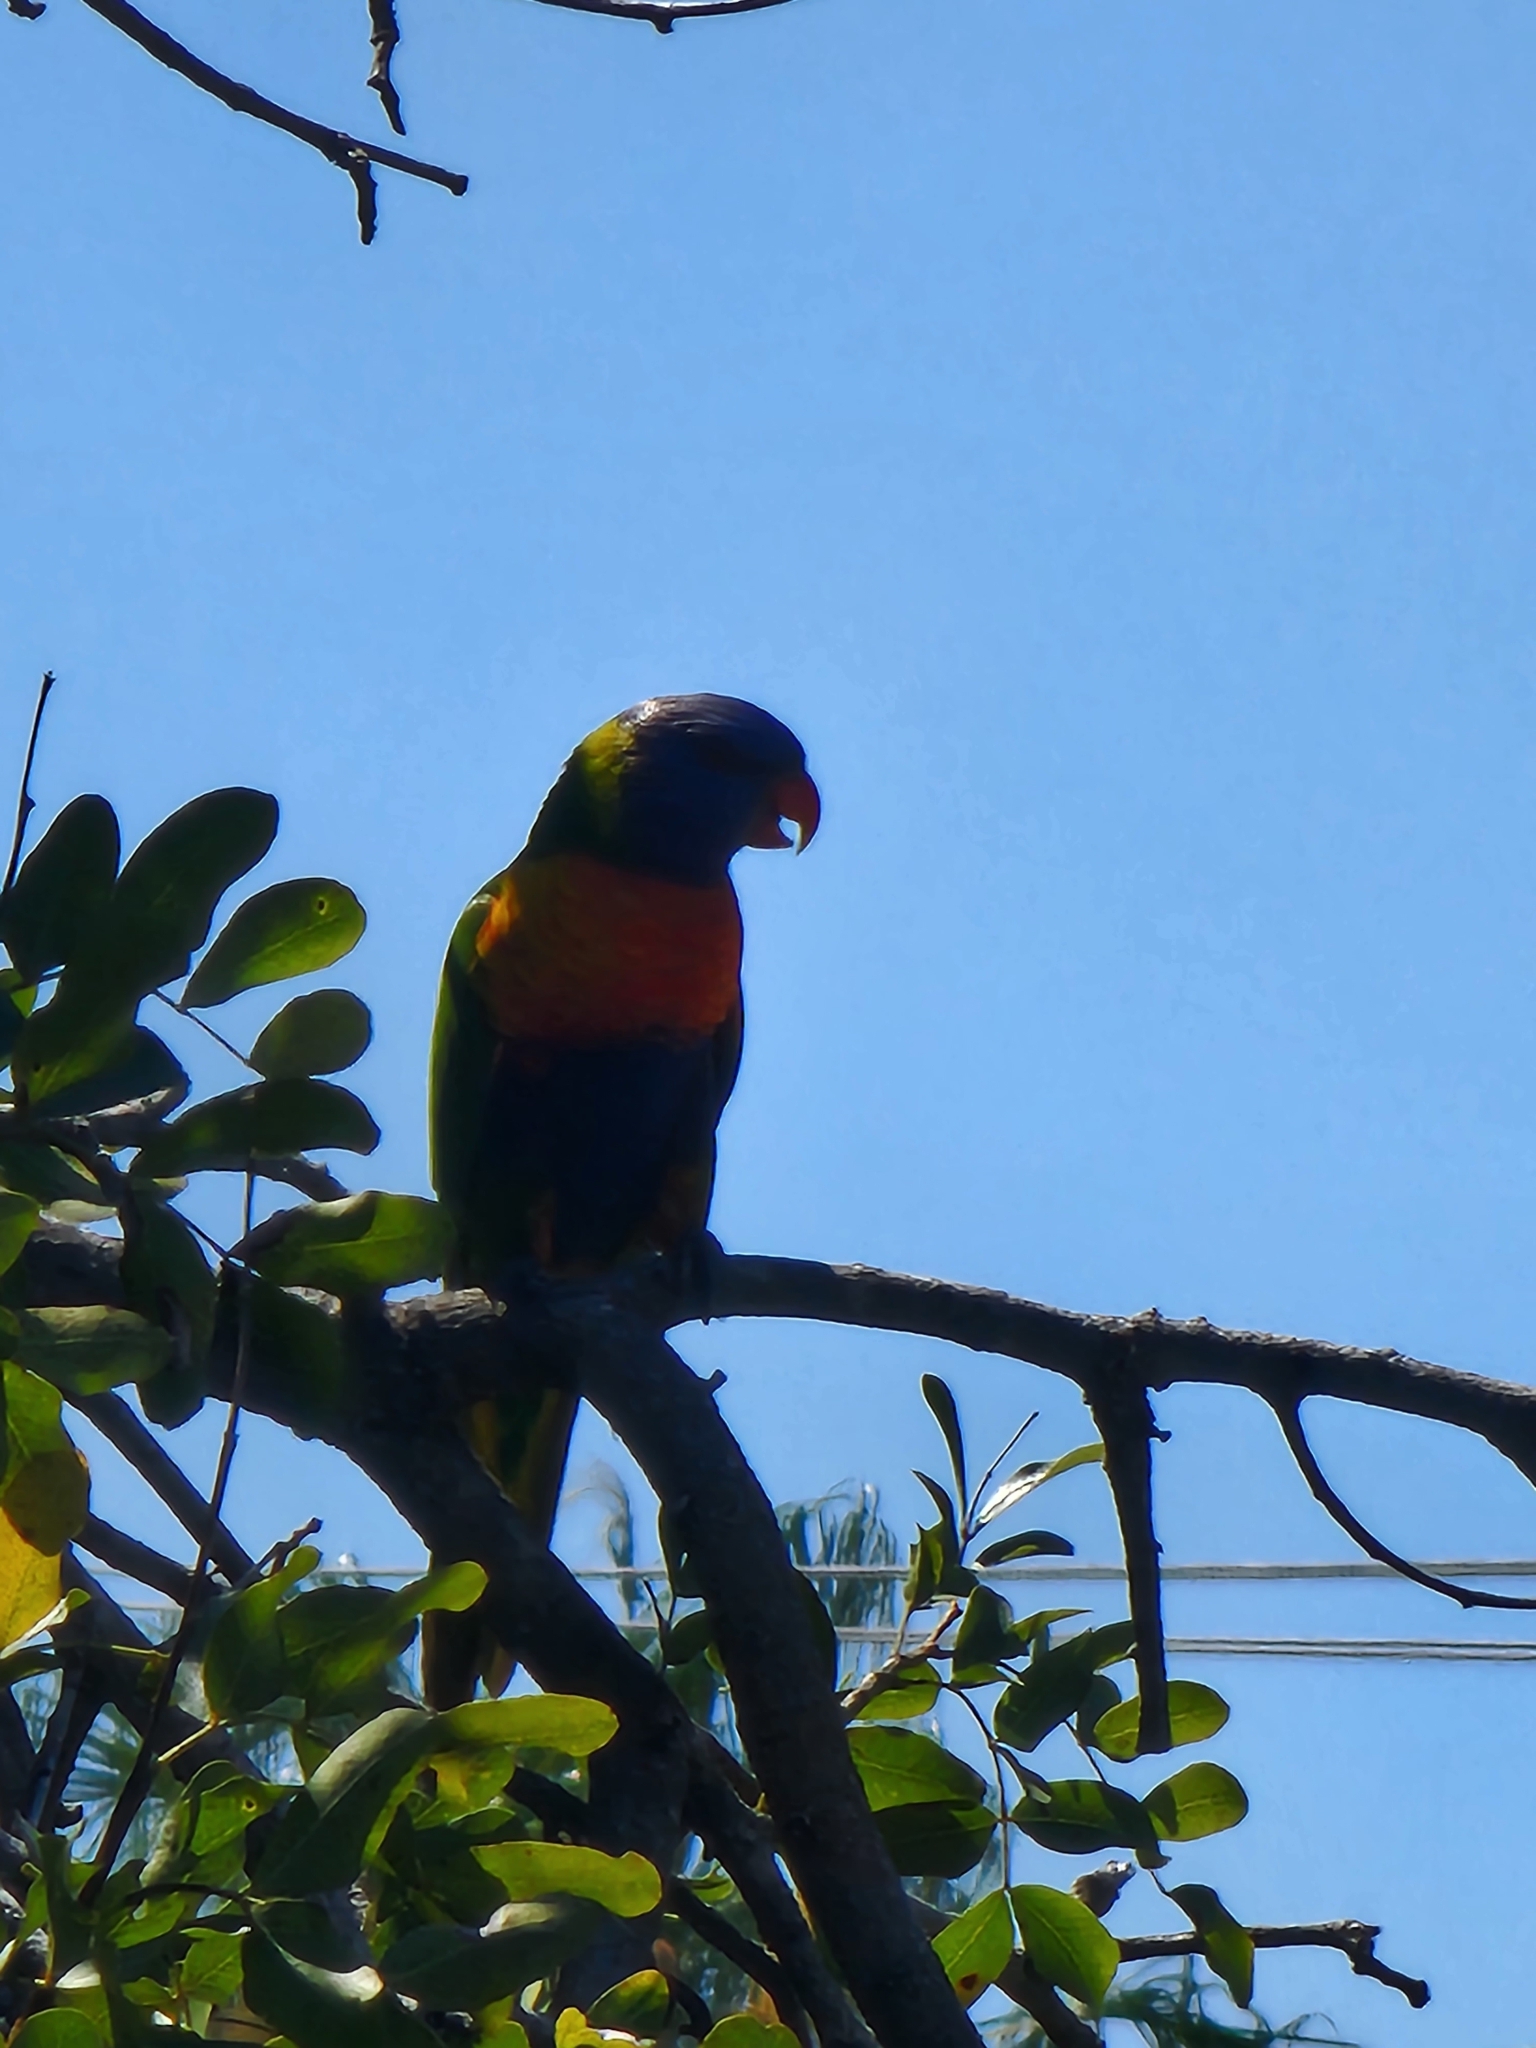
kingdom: Animalia
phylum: Chordata
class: Aves
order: Psittaciformes
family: Psittacidae
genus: Trichoglossus
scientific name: Trichoglossus haematodus
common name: Coconut lorikeet
